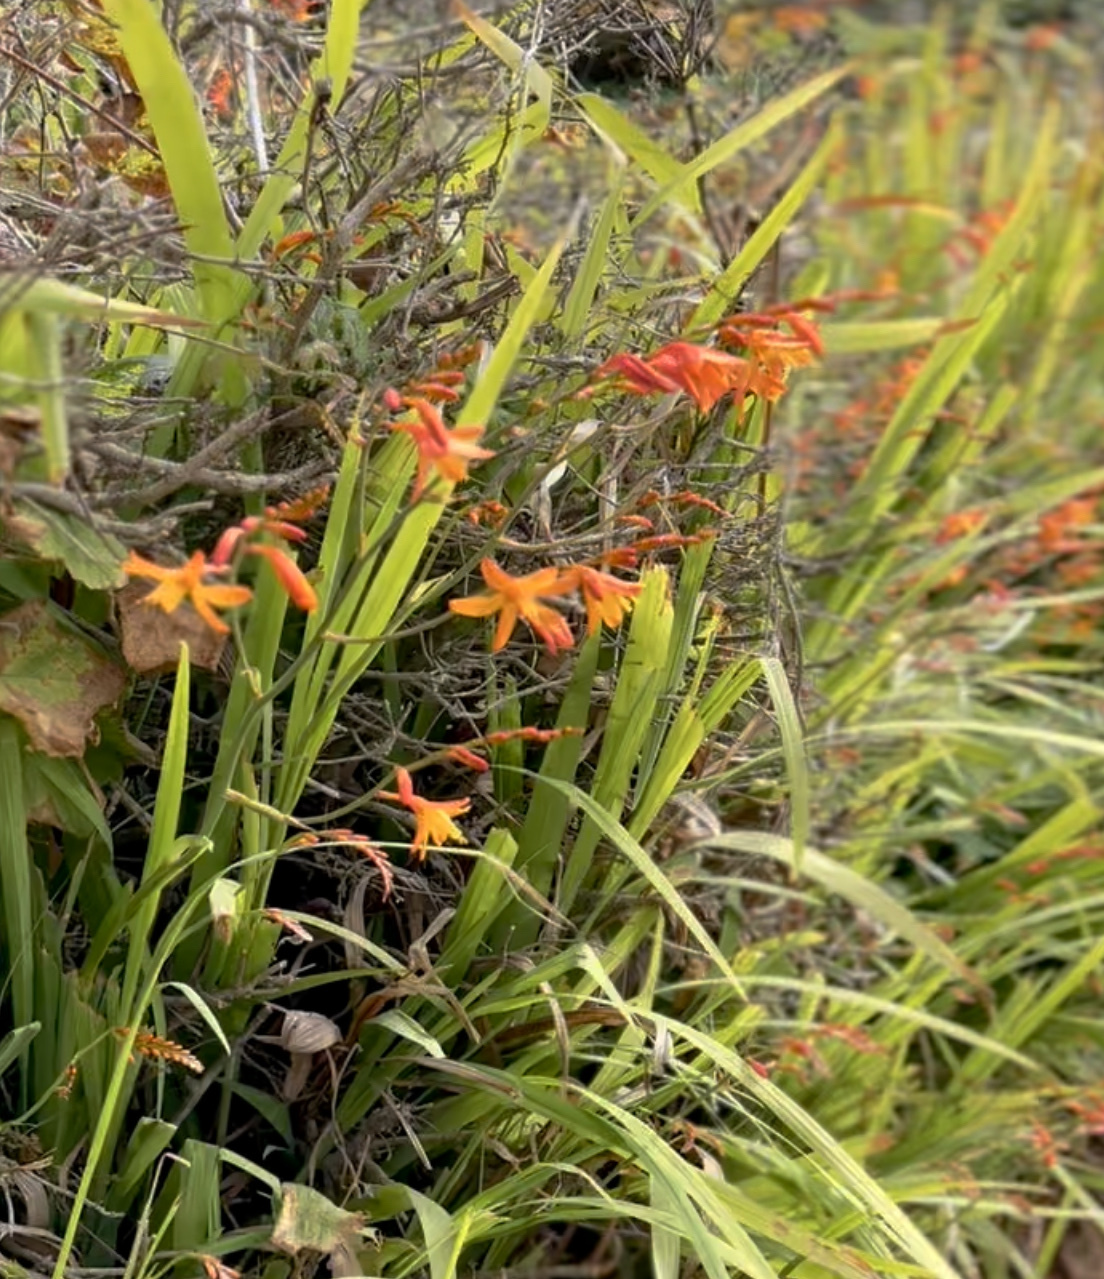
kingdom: Plantae
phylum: Tracheophyta
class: Liliopsida
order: Asparagales
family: Iridaceae
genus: Crocosmia
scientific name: Crocosmia crocosmiiflora
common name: Montbretia
